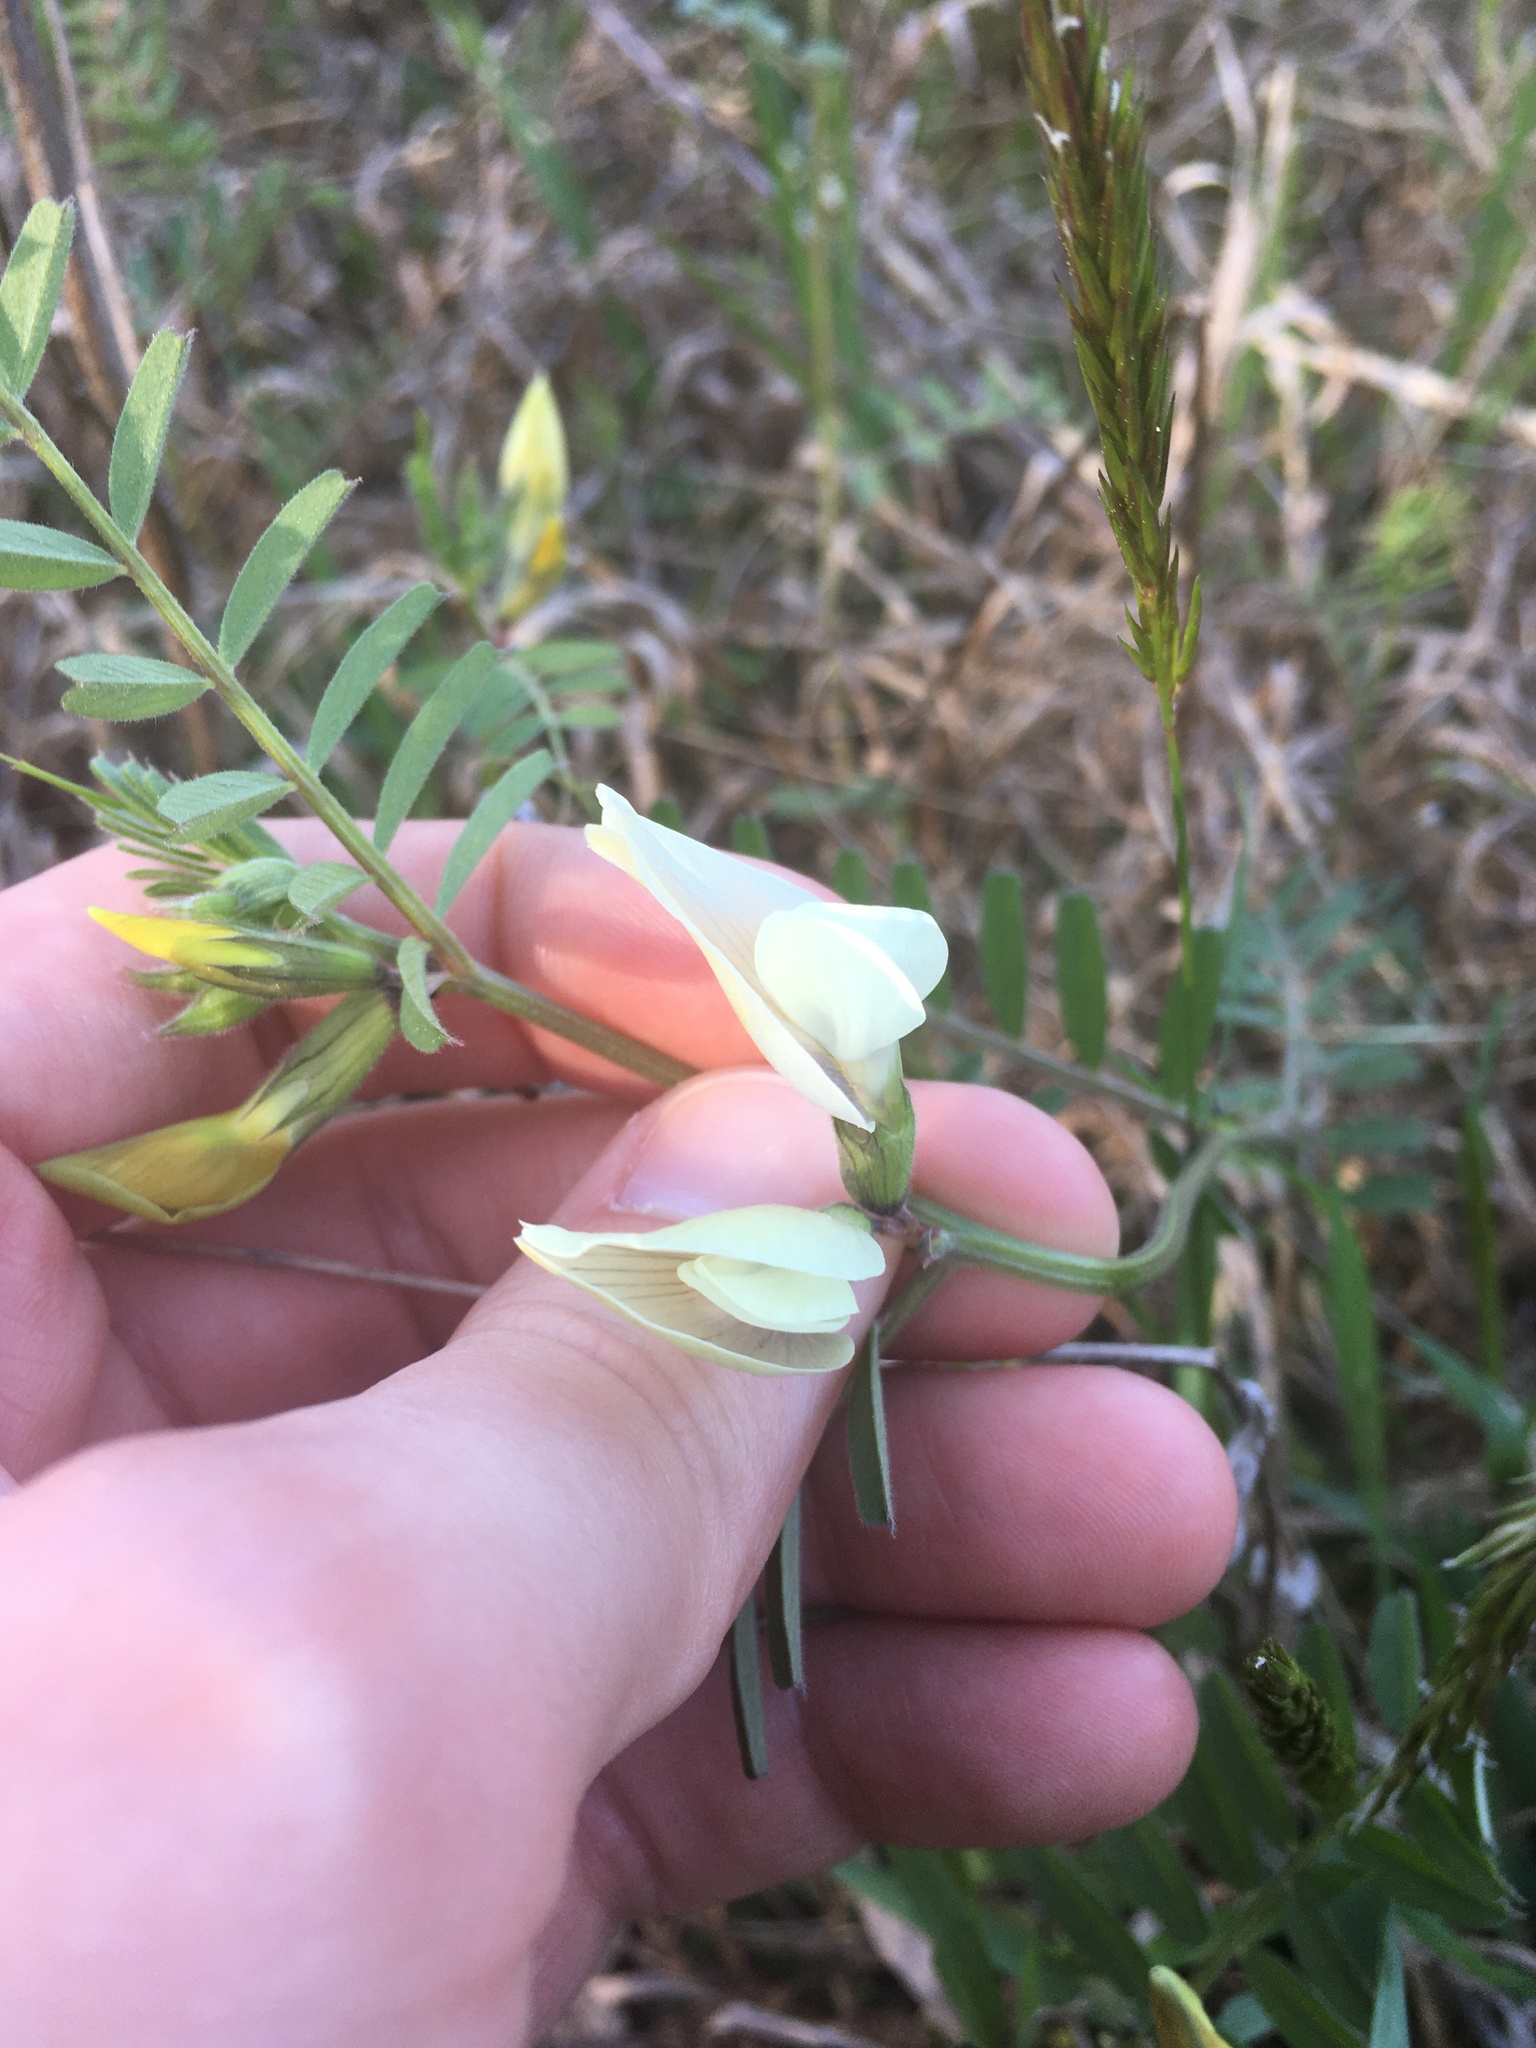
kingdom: Plantae
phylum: Tracheophyta
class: Magnoliopsida
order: Fabales
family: Fabaceae
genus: Vicia
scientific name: Vicia grandiflora
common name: Large yellow vetch
